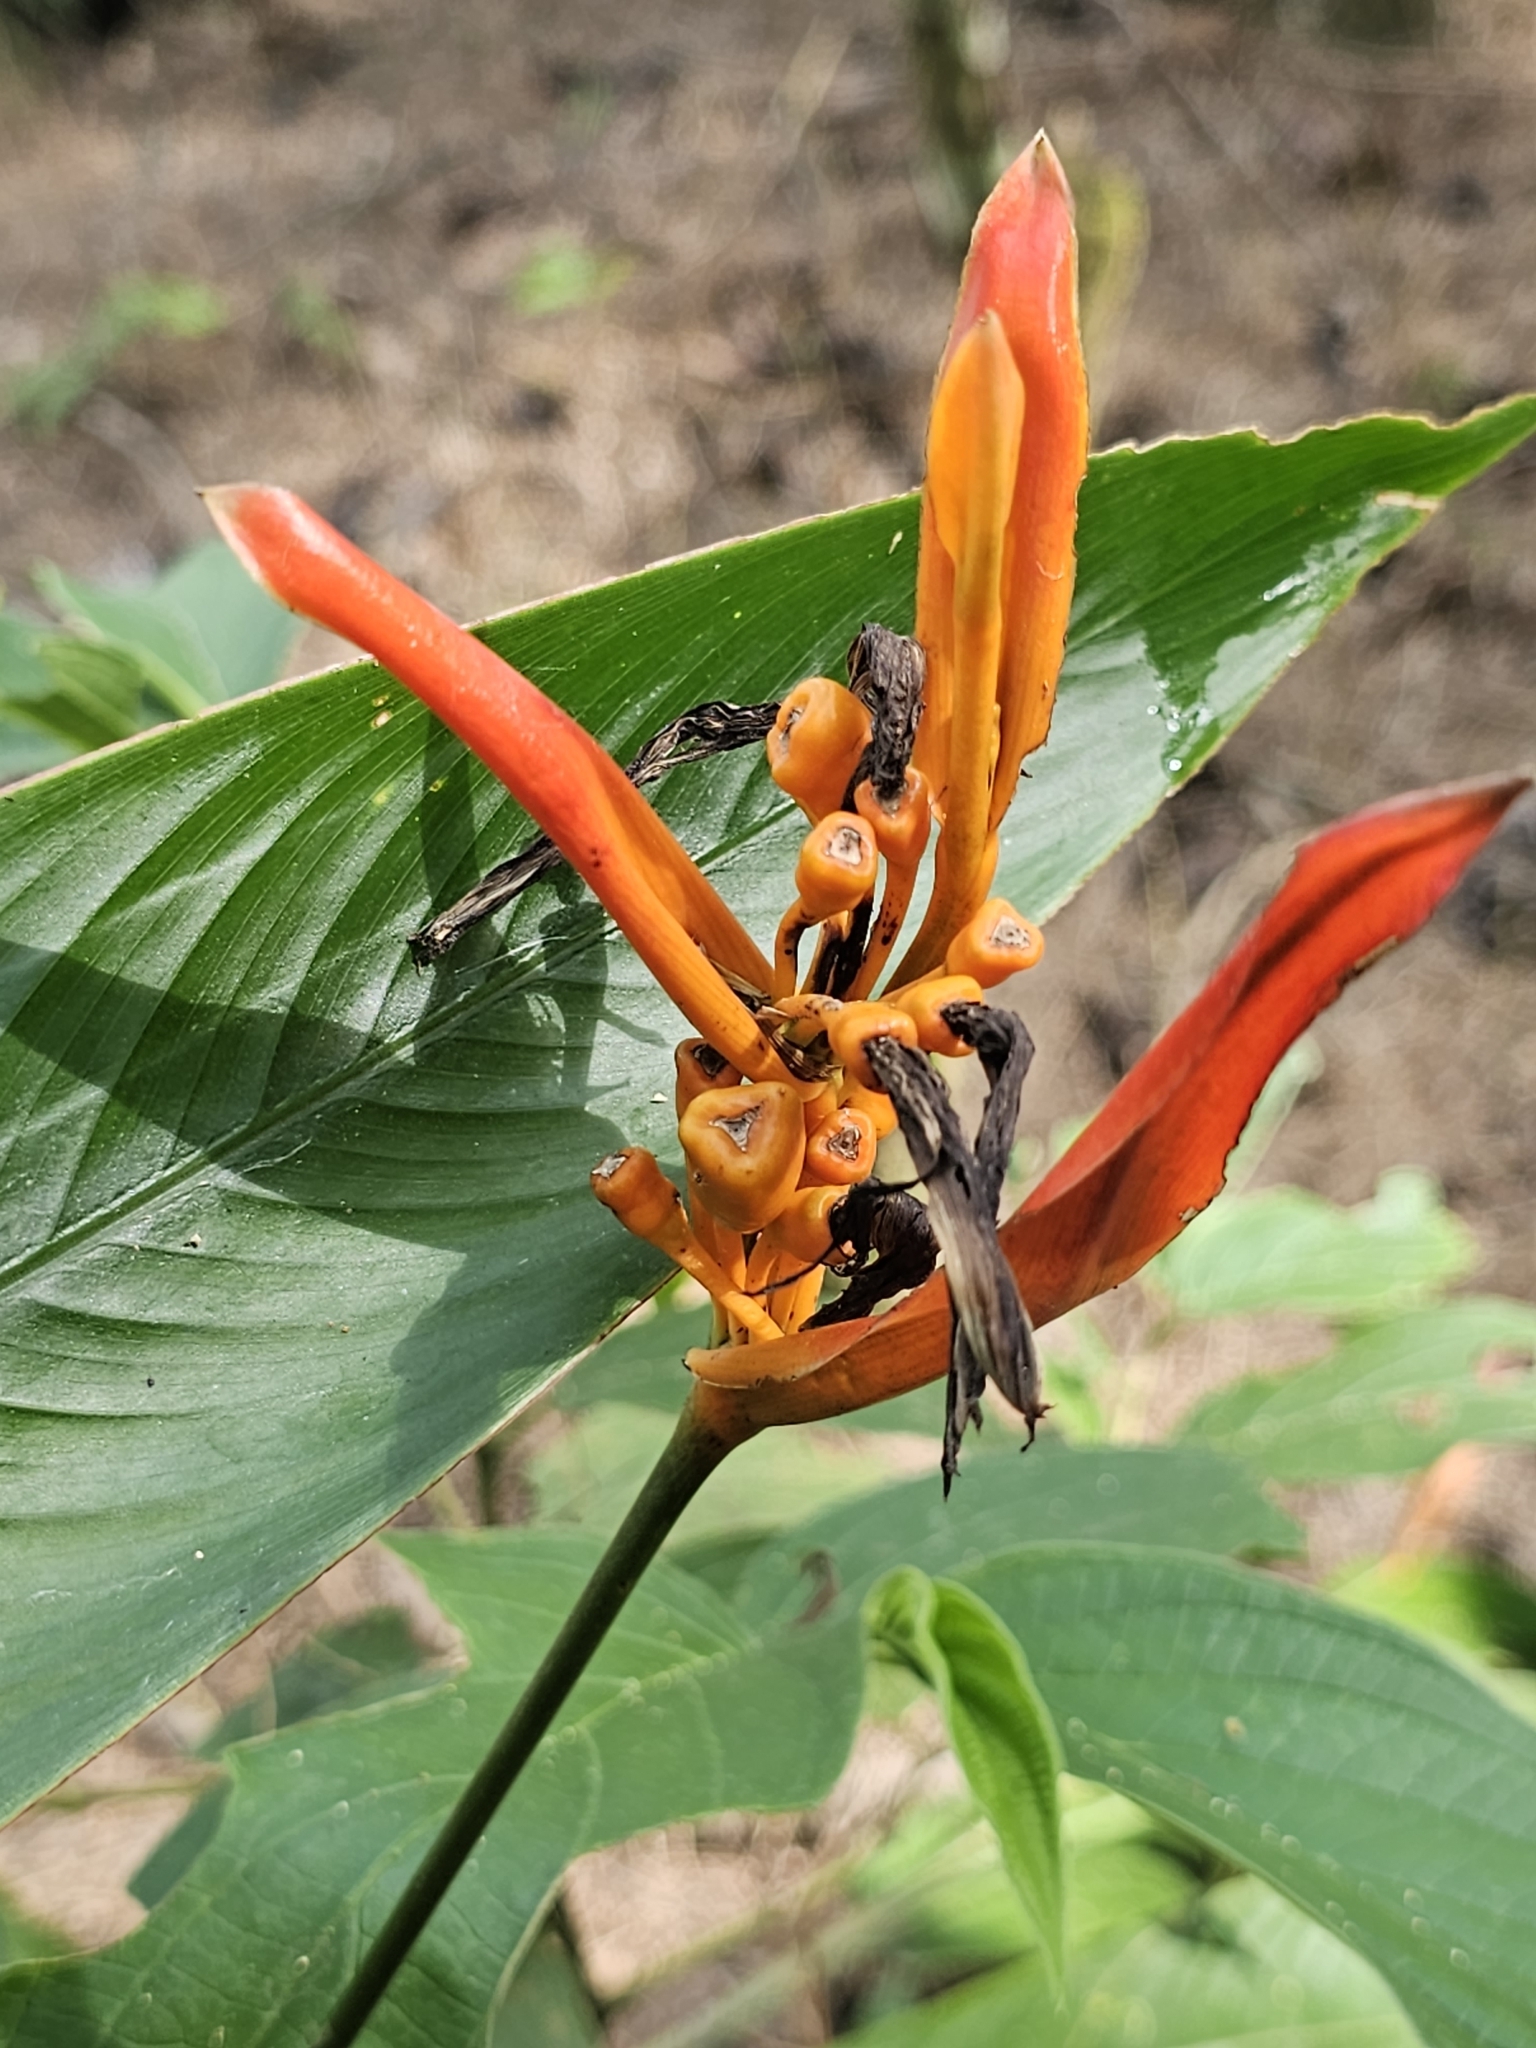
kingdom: Plantae
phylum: Tracheophyta
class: Liliopsida
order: Zingiberales
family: Heliconiaceae
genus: Heliconia
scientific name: Heliconia psittacorum
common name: Parrot's-flower
